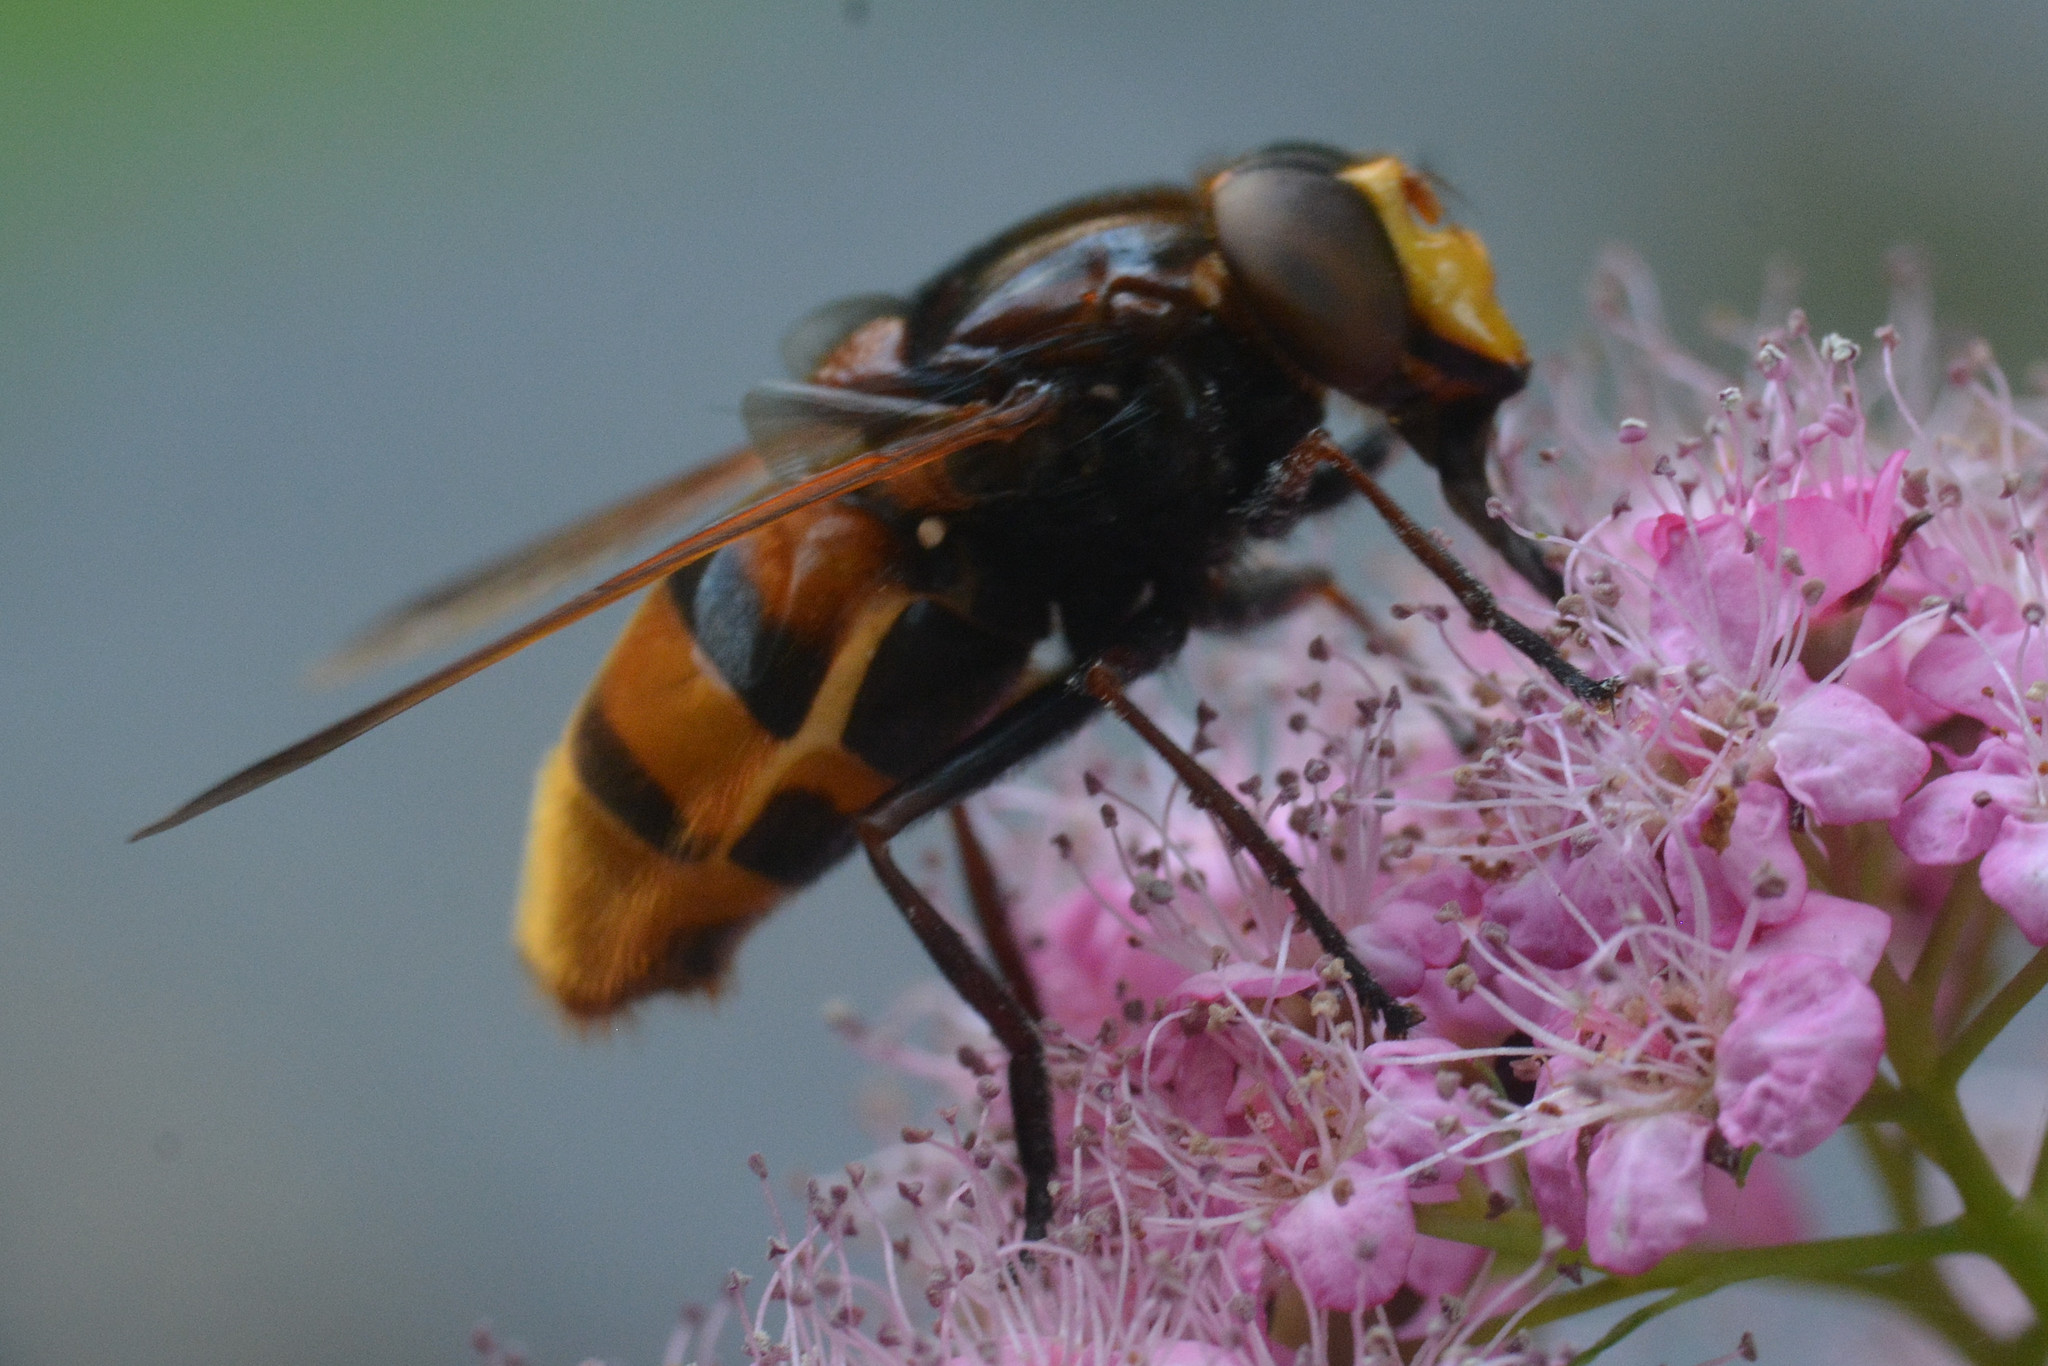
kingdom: Animalia
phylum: Arthropoda
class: Insecta
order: Diptera
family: Syrphidae
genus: Volucella
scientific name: Volucella zonaria
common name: Hornet hoverfly
